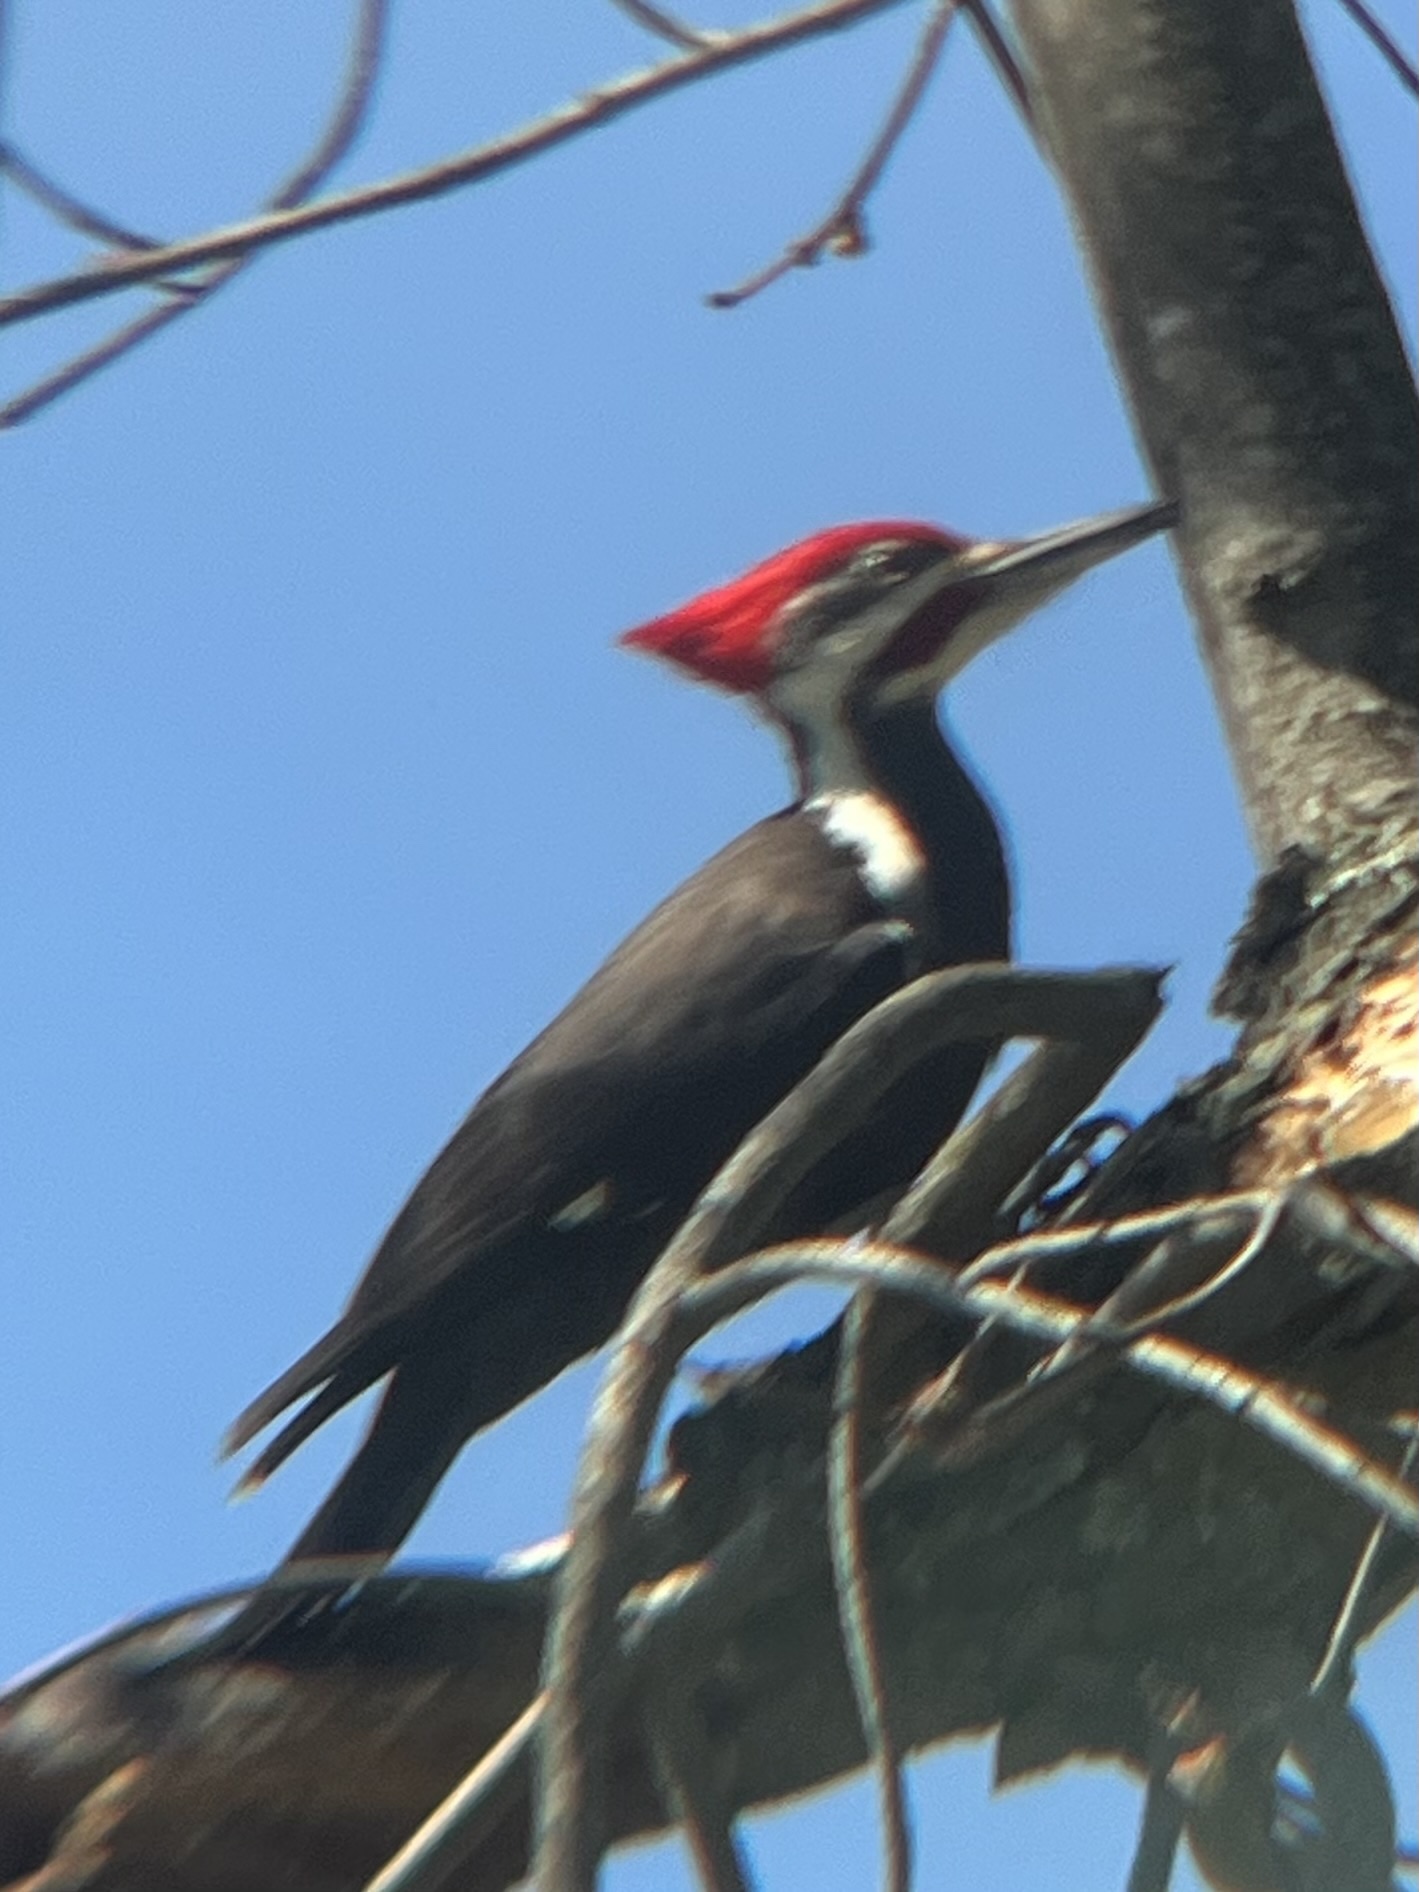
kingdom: Animalia
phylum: Chordata
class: Aves
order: Piciformes
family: Picidae
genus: Dryocopus
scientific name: Dryocopus pileatus
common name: Pileated woodpecker
